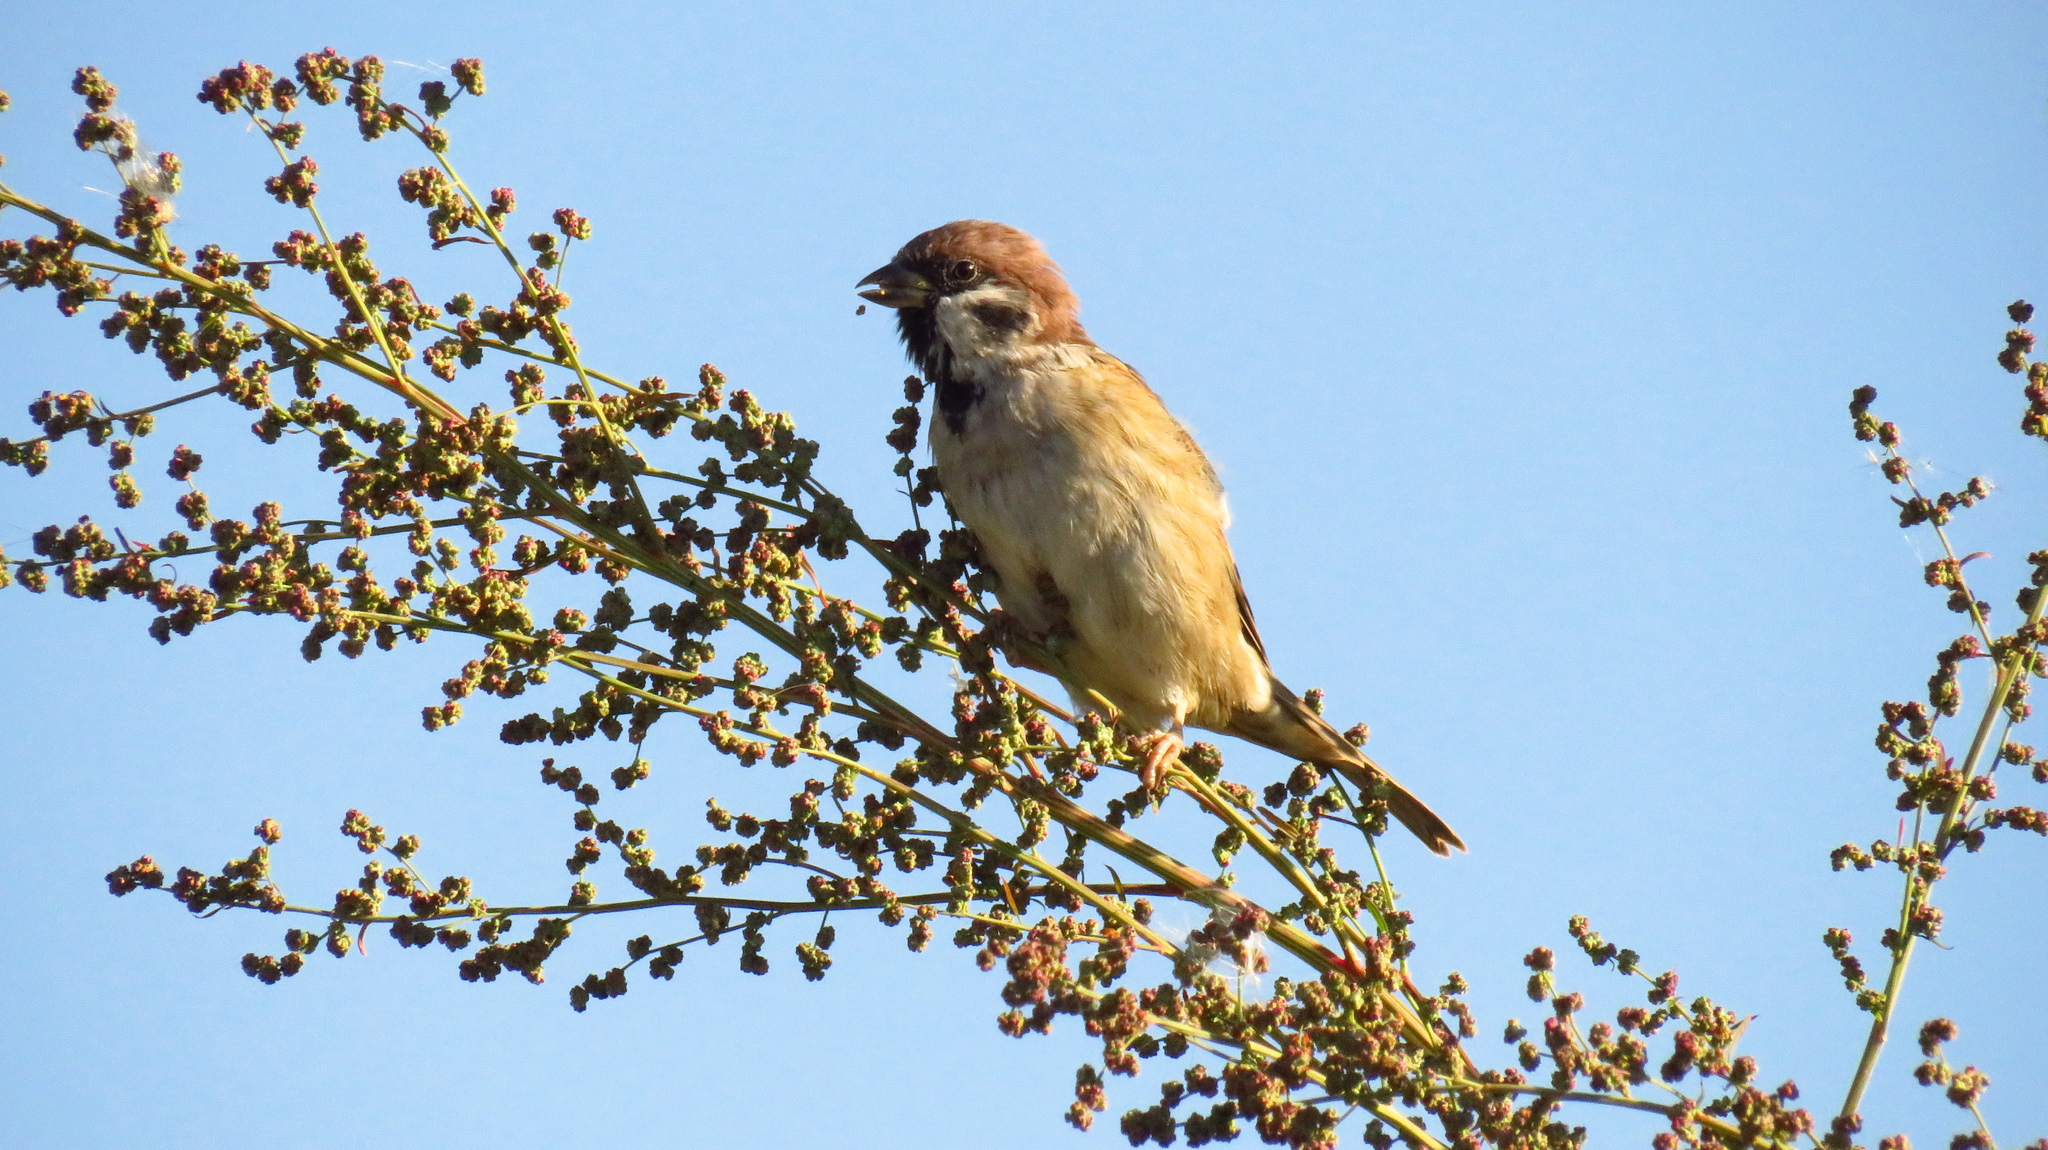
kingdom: Animalia
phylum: Chordata
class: Aves
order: Passeriformes
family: Passeridae
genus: Passer
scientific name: Passer montanus
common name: Eurasian tree sparrow
